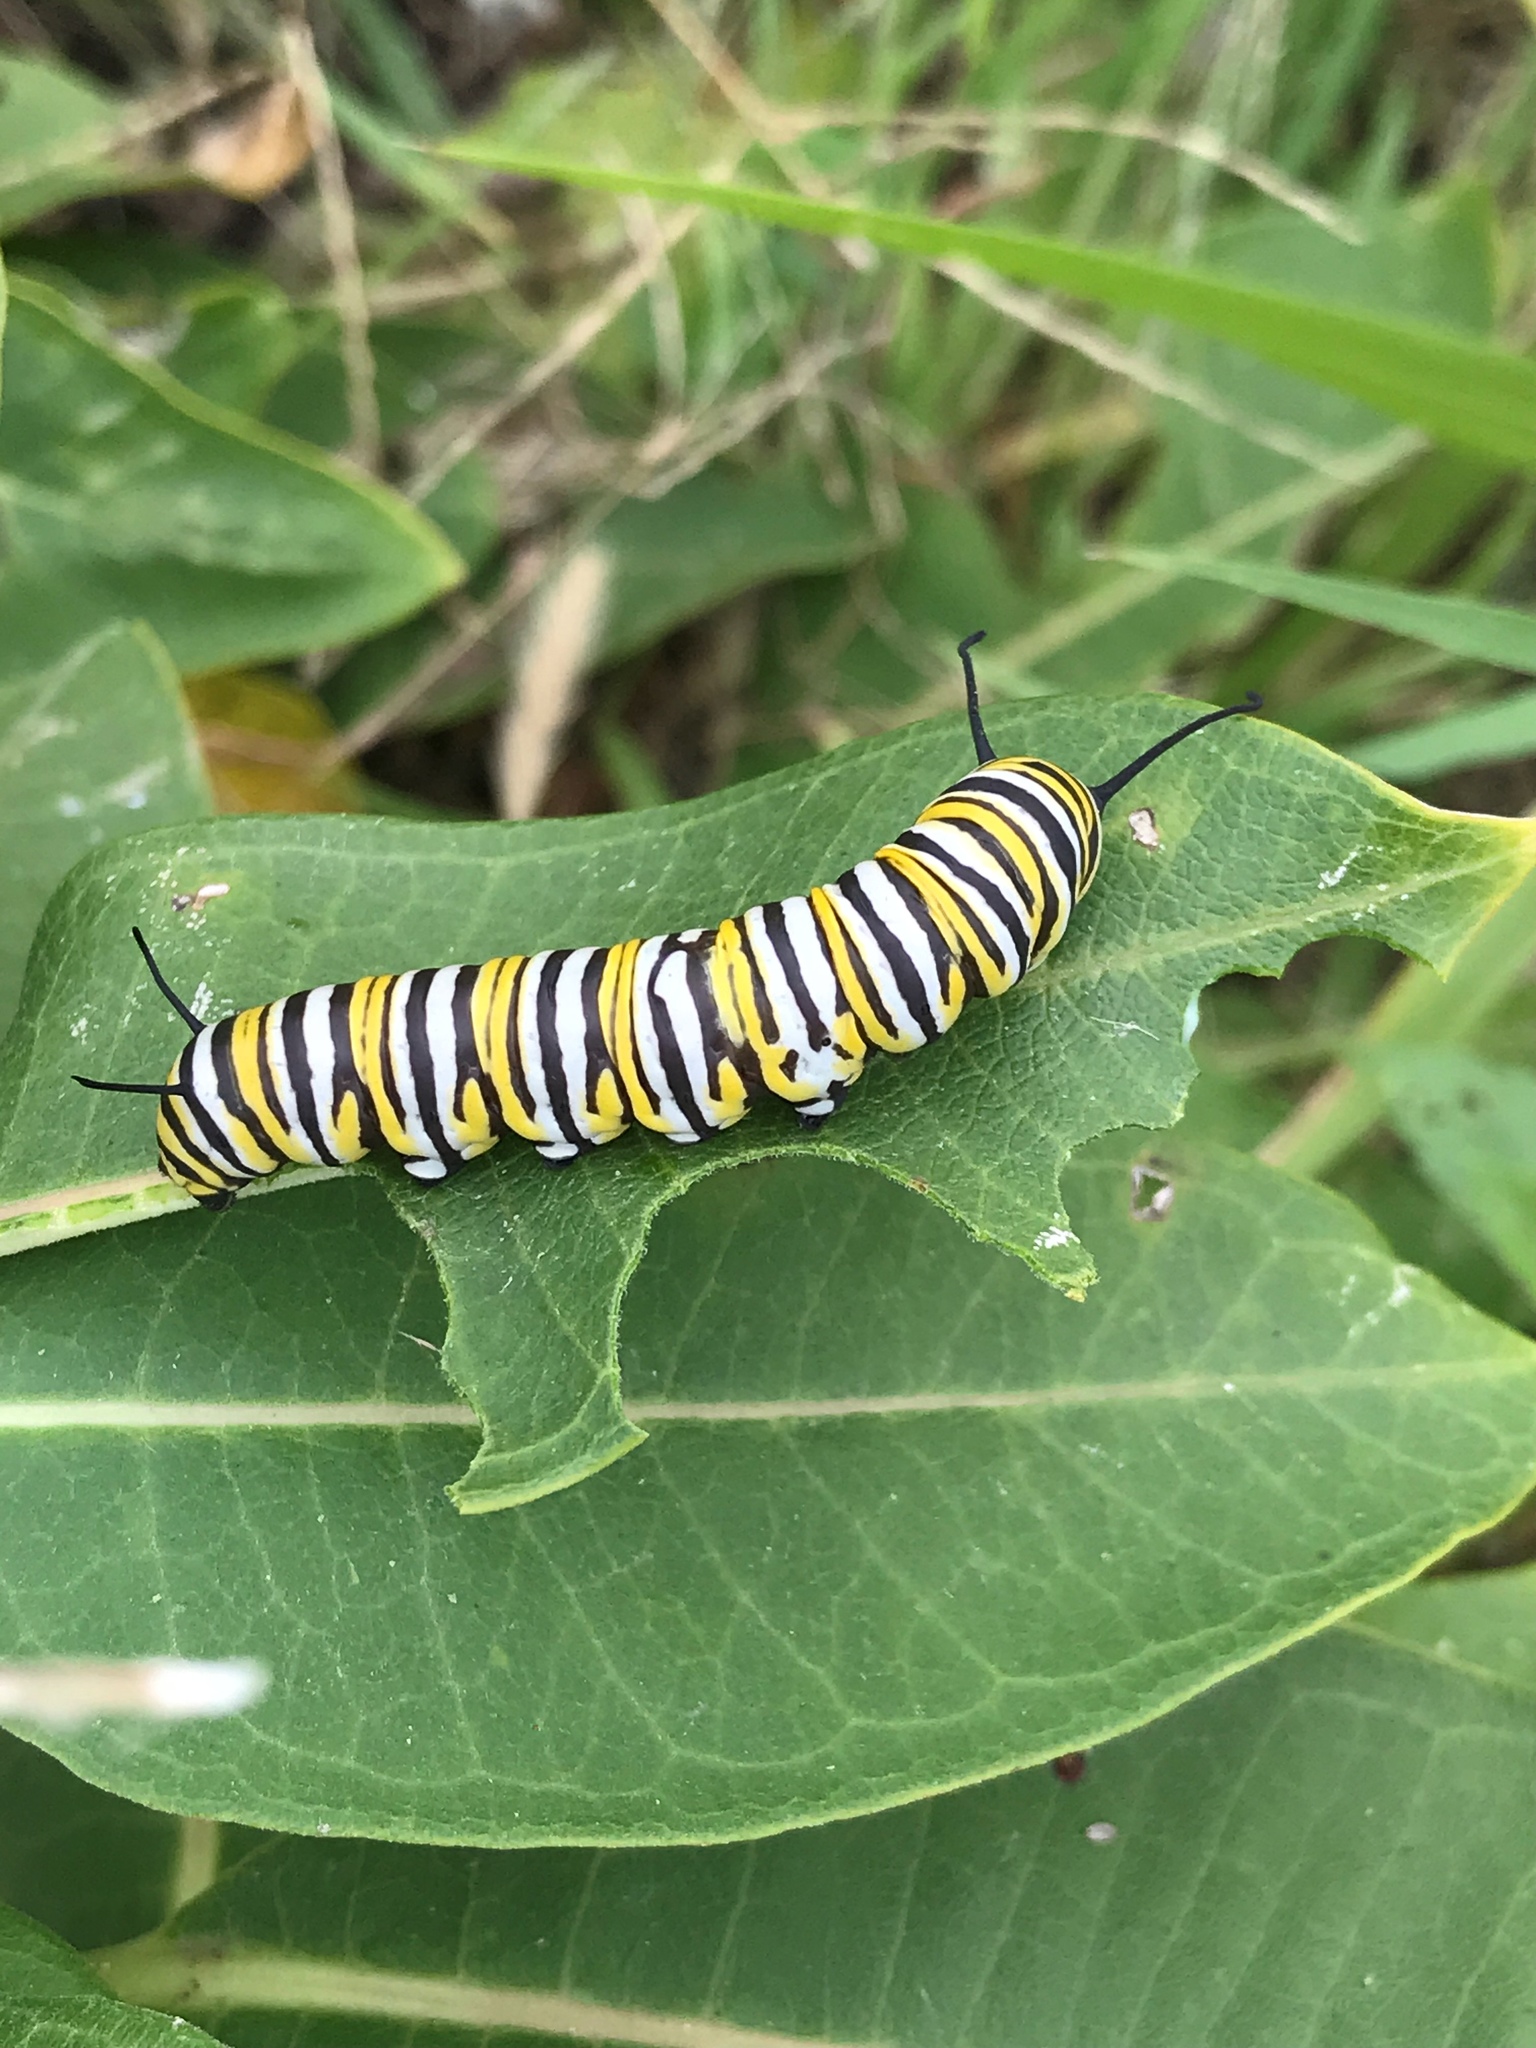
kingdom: Animalia
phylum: Arthropoda
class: Insecta
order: Lepidoptera
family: Nymphalidae
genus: Danaus
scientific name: Danaus plexippus
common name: Monarch
